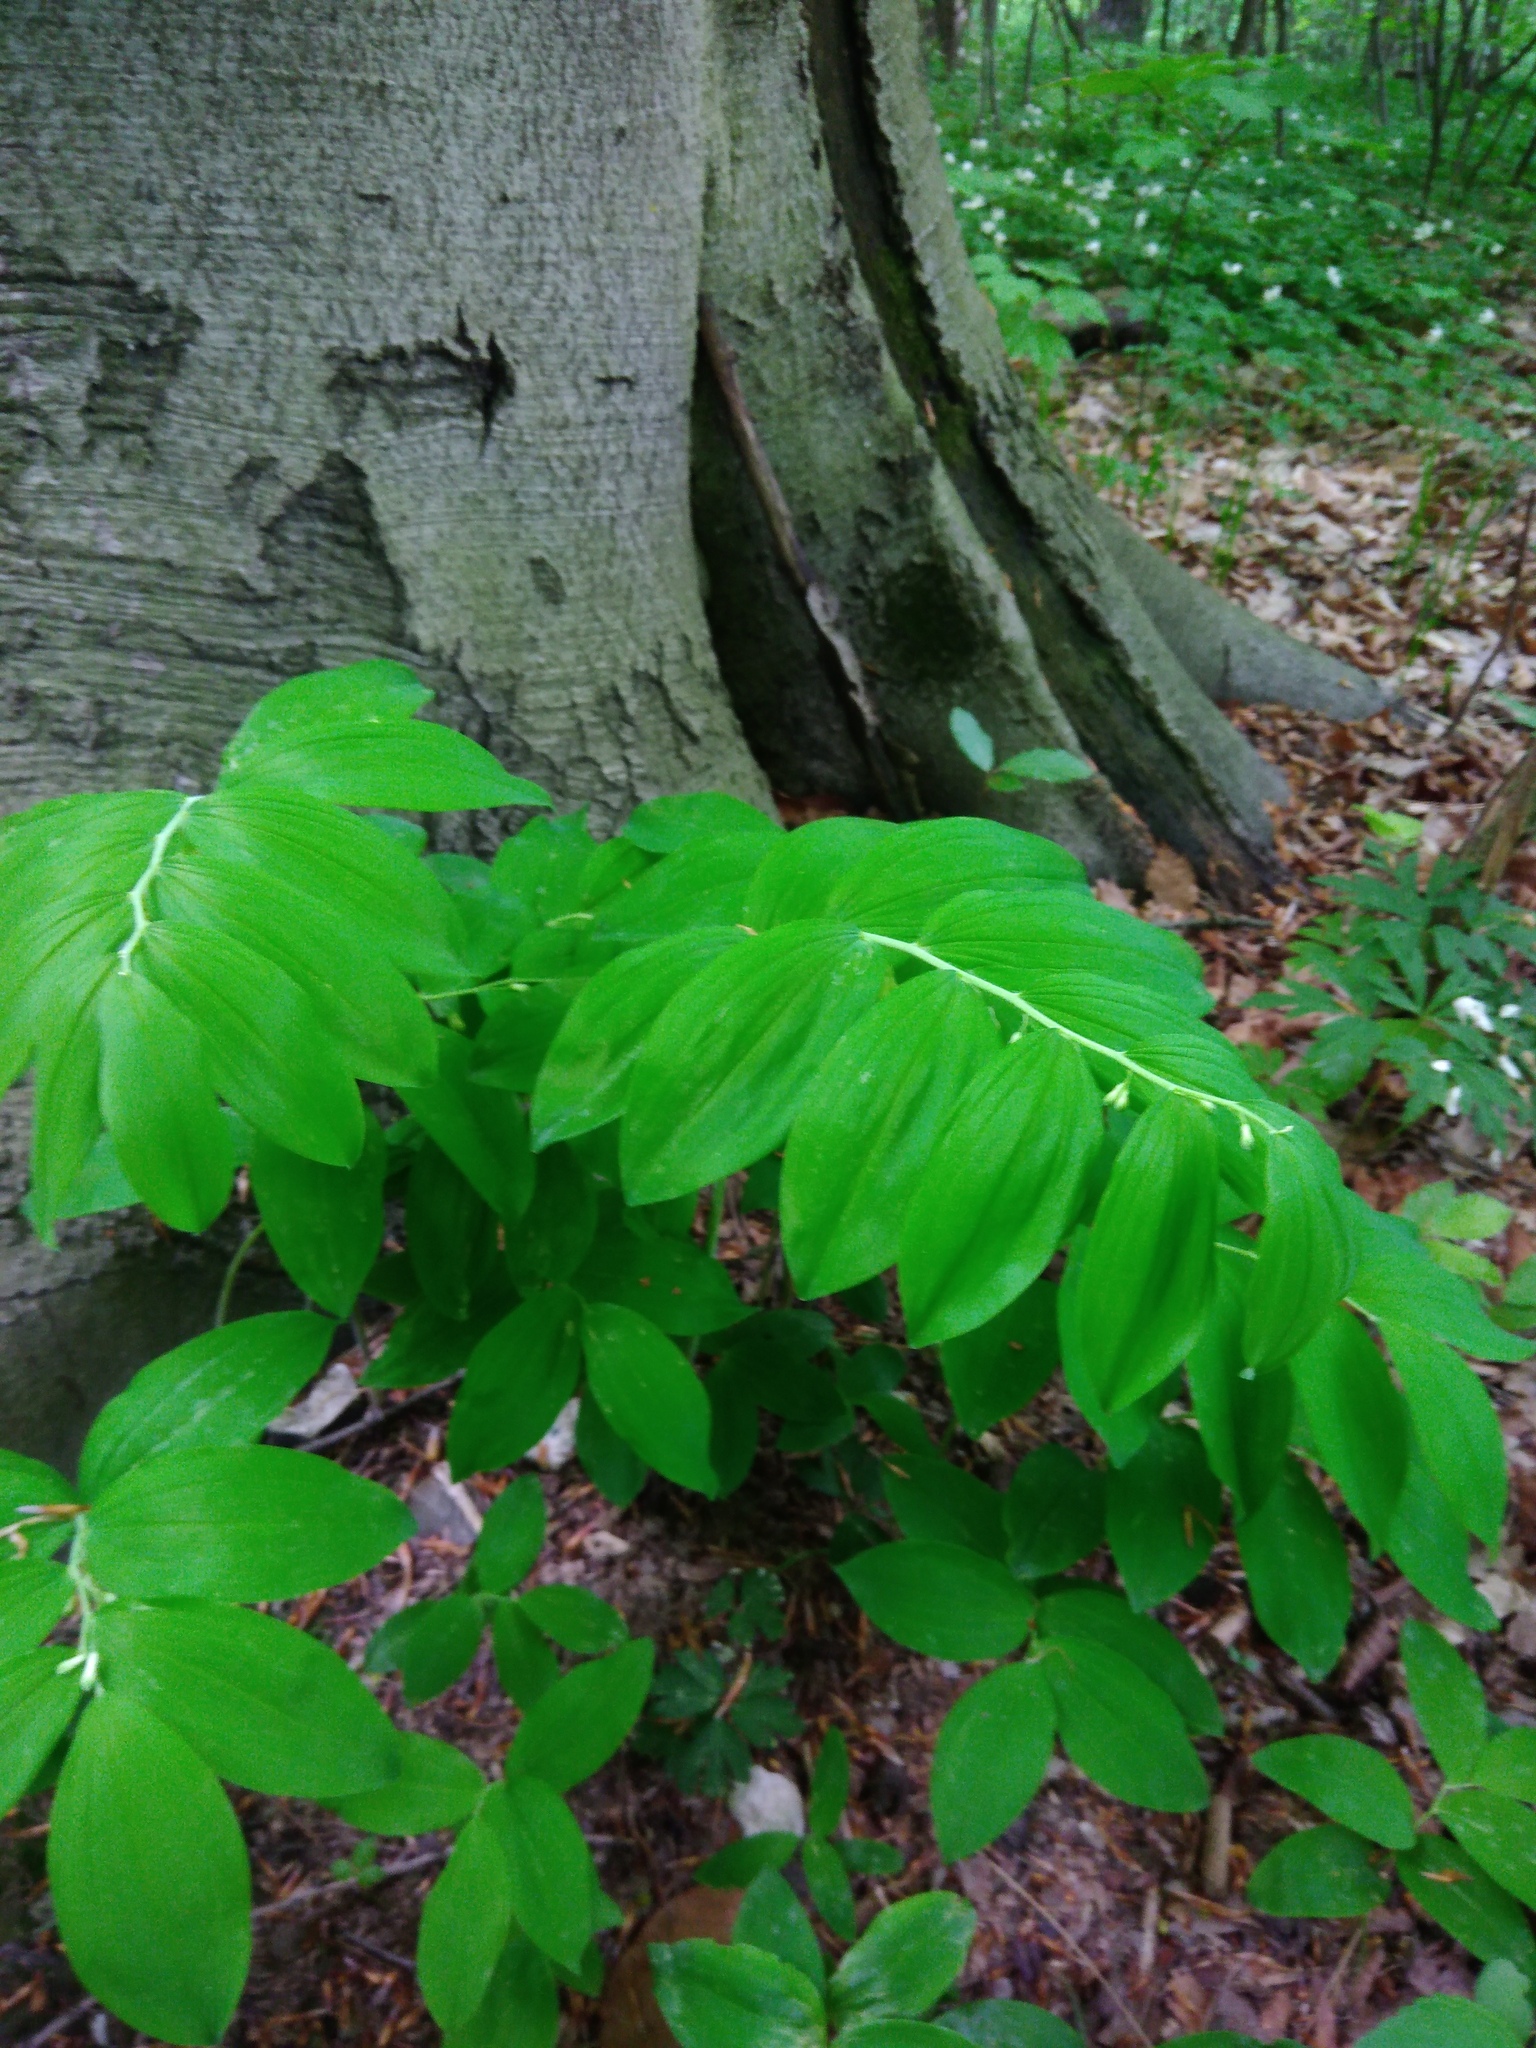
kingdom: Plantae
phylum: Tracheophyta
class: Liliopsida
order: Asparagales
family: Asparagaceae
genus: Polygonatum
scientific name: Polygonatum multiflorum
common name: Solomon's-seal
